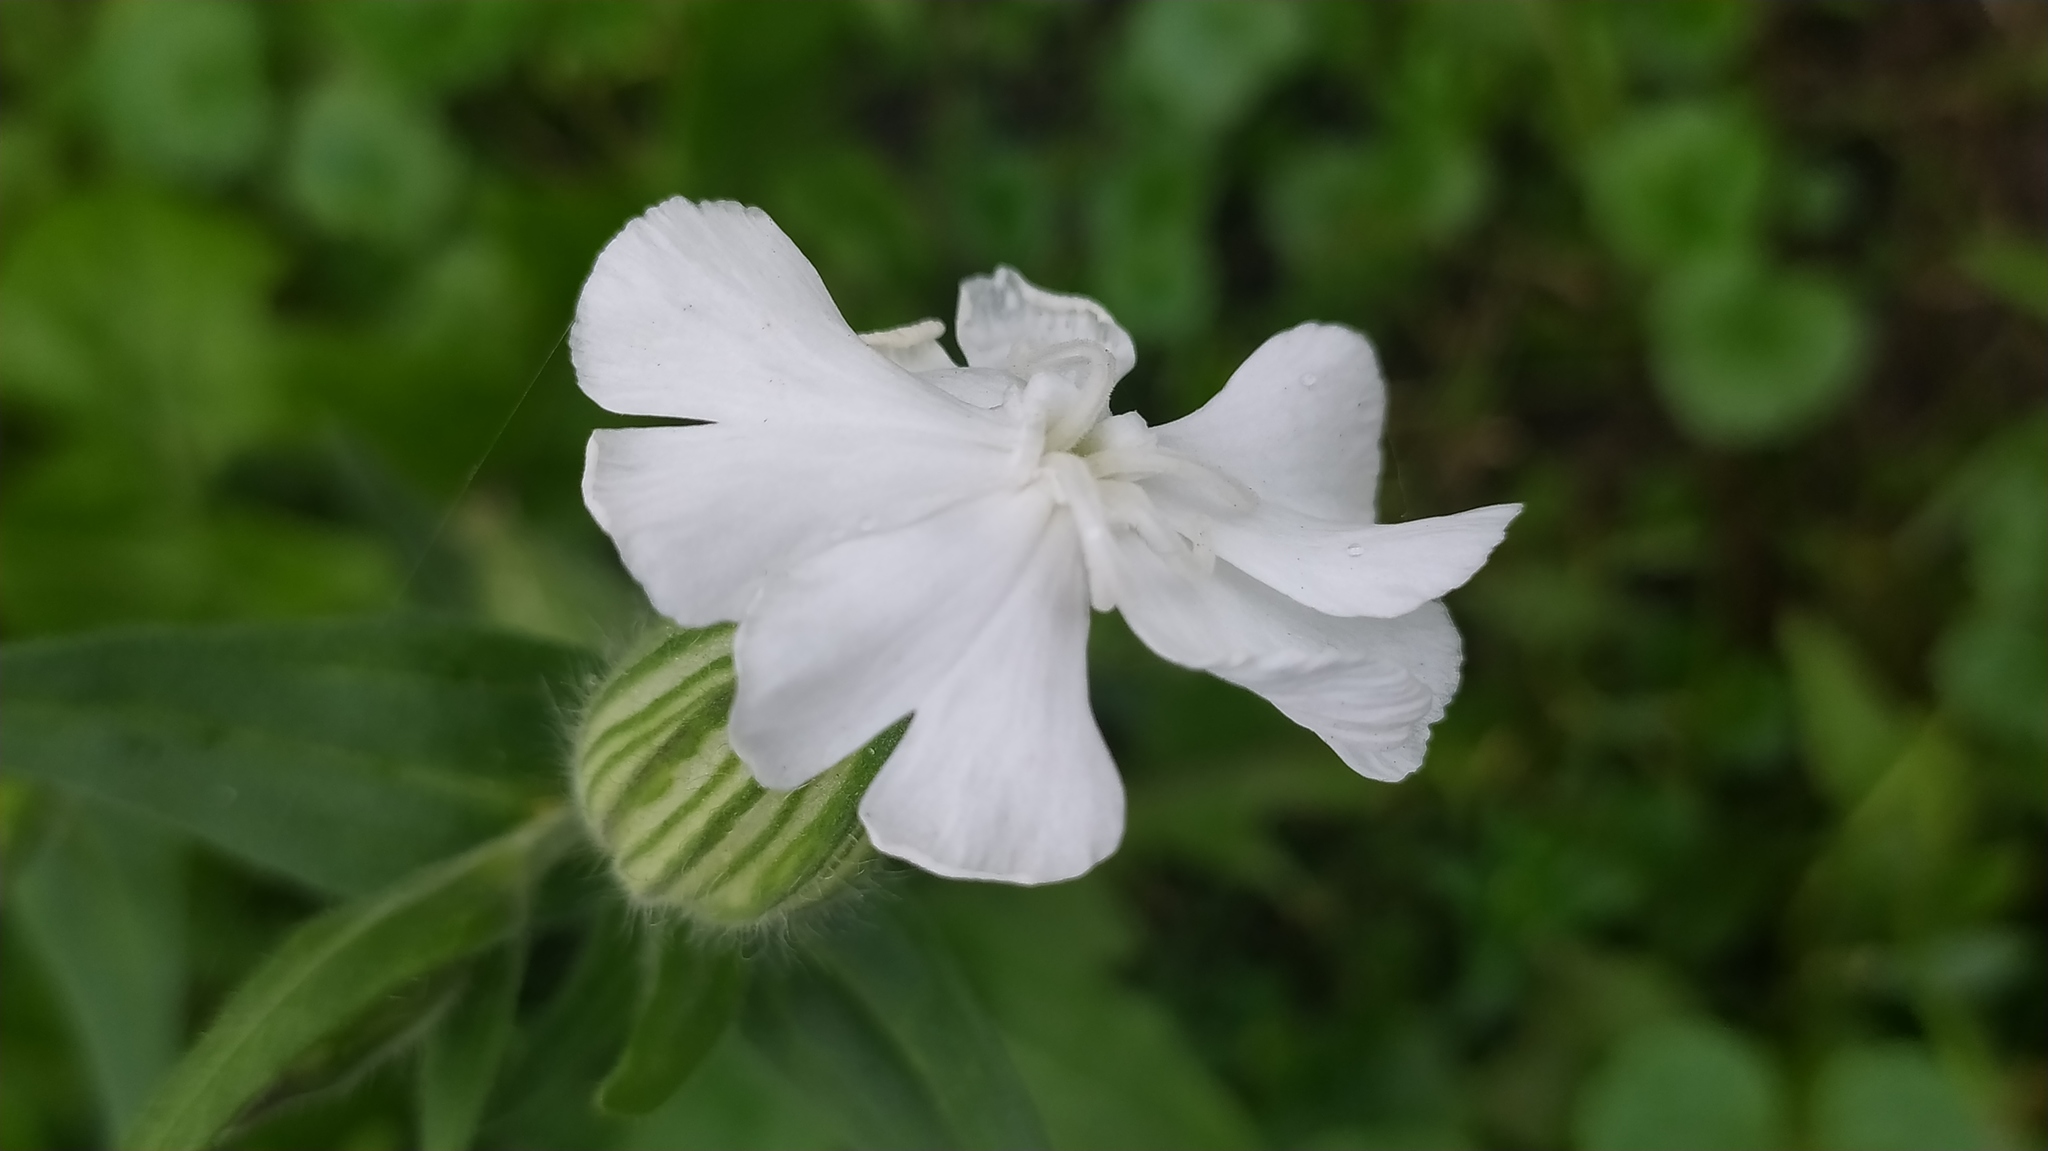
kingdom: Plantae
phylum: Tracheophyta
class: Magnoliopsida
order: Caryophyllales
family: Caryophyllaceae
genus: Silene
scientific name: Silene latifolia
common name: White campion
